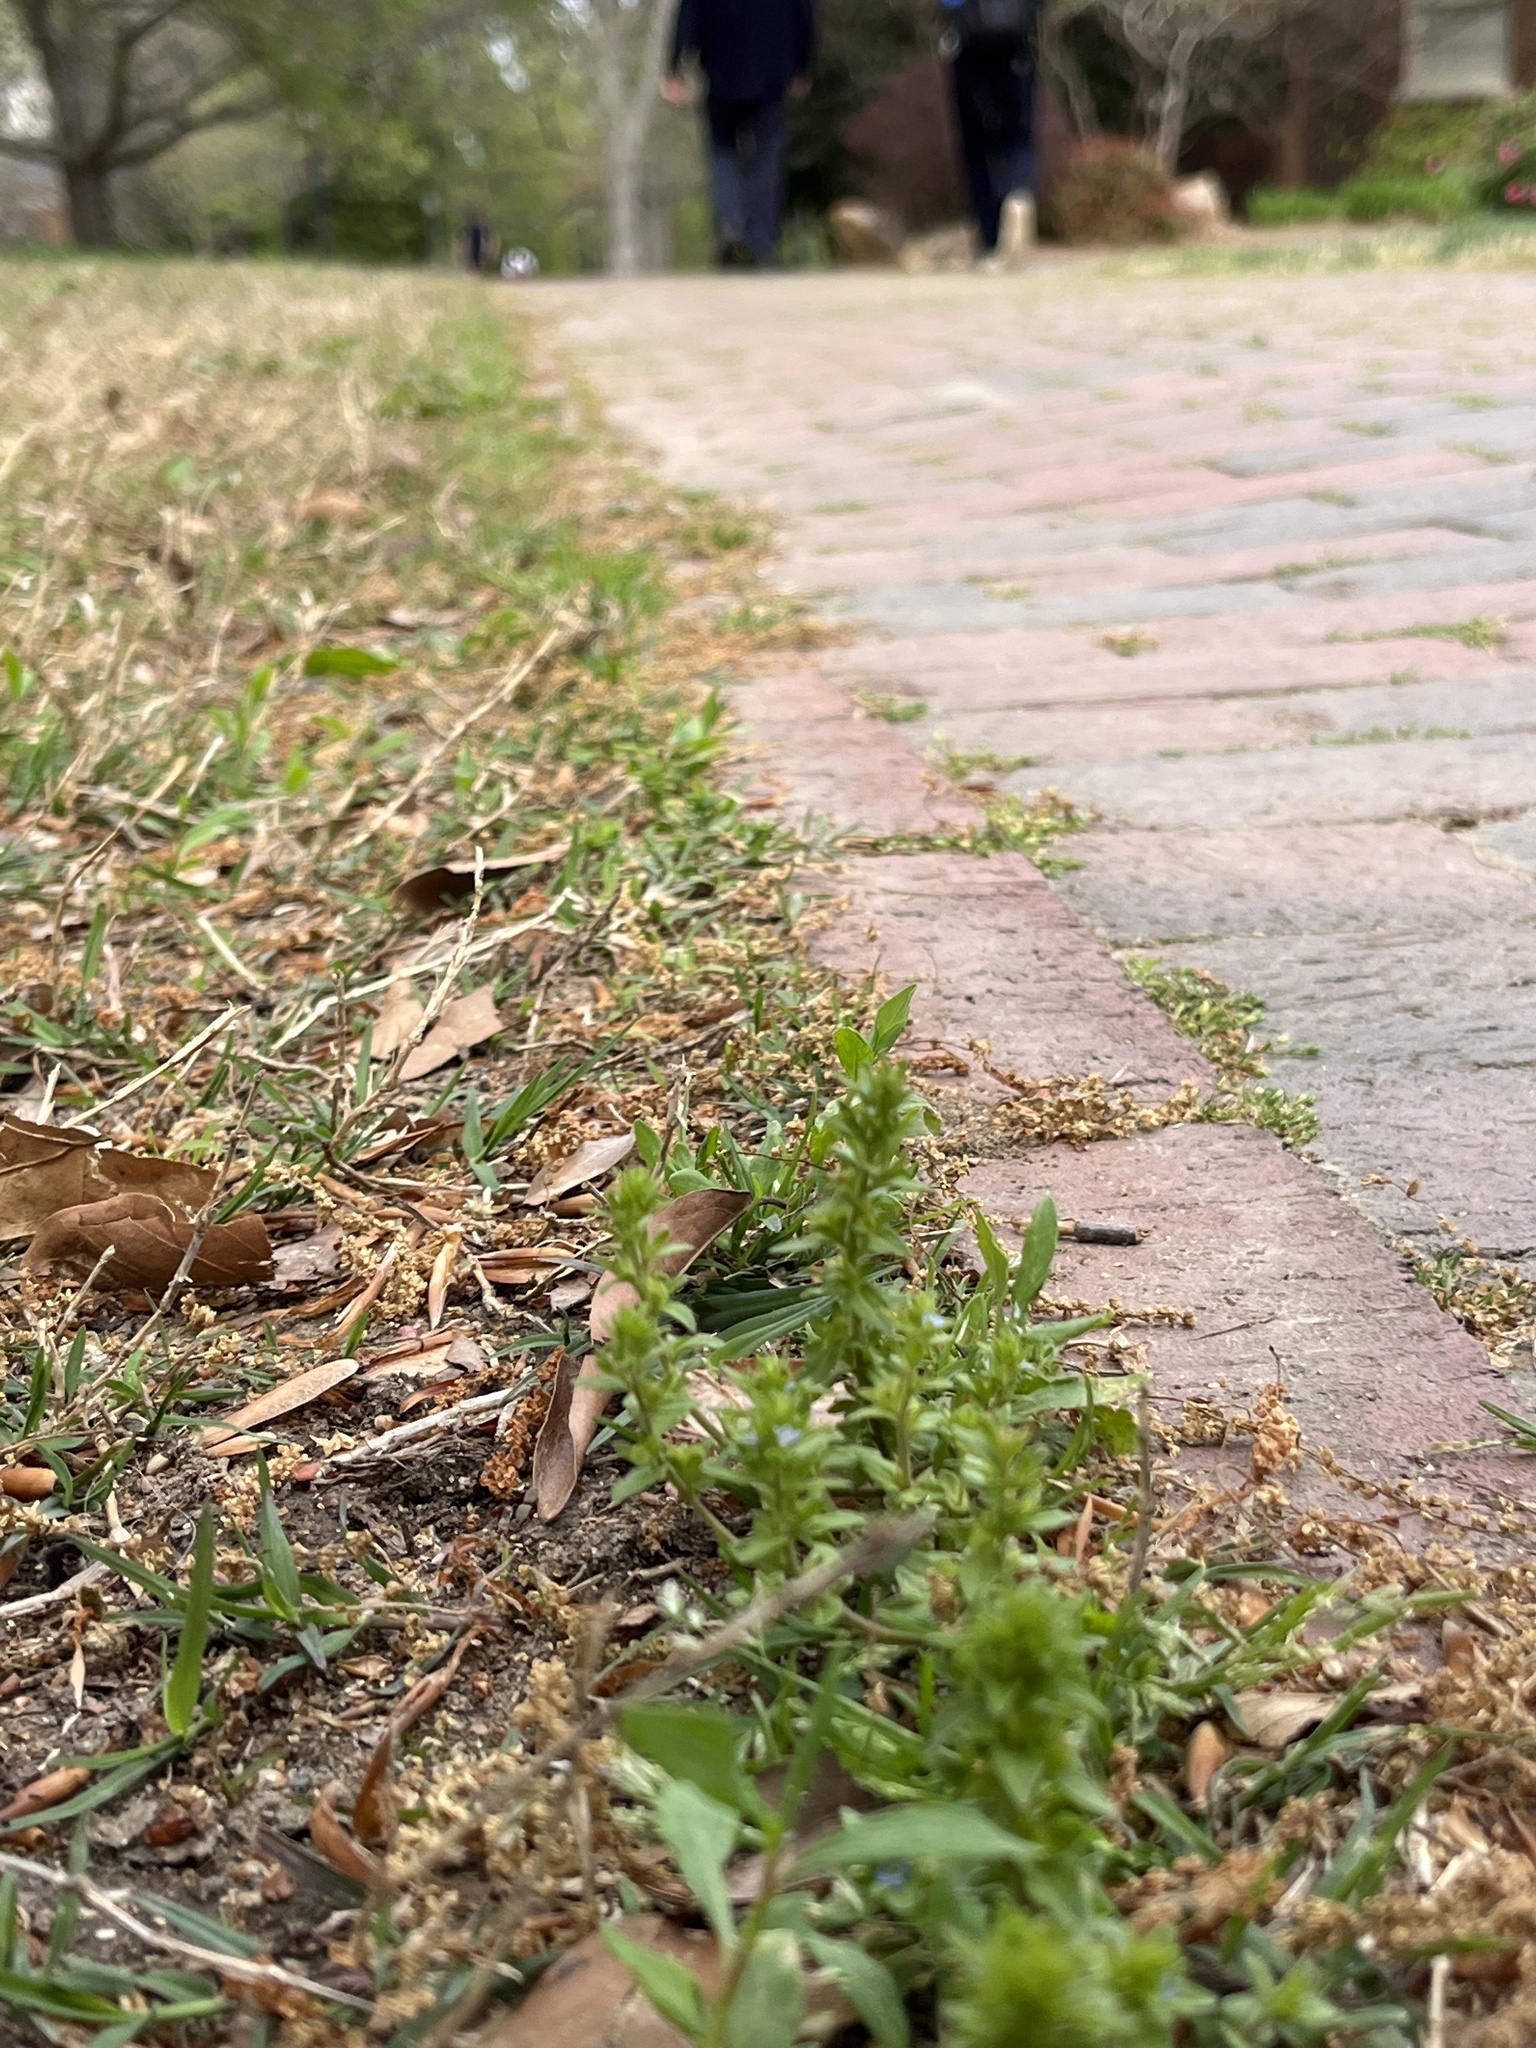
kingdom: Plantae
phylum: Tracheophyta
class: Magnoliopsida
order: Gentianales
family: Rubiaceae
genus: Sherardia
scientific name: Sherardia arvensis
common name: Field madder
